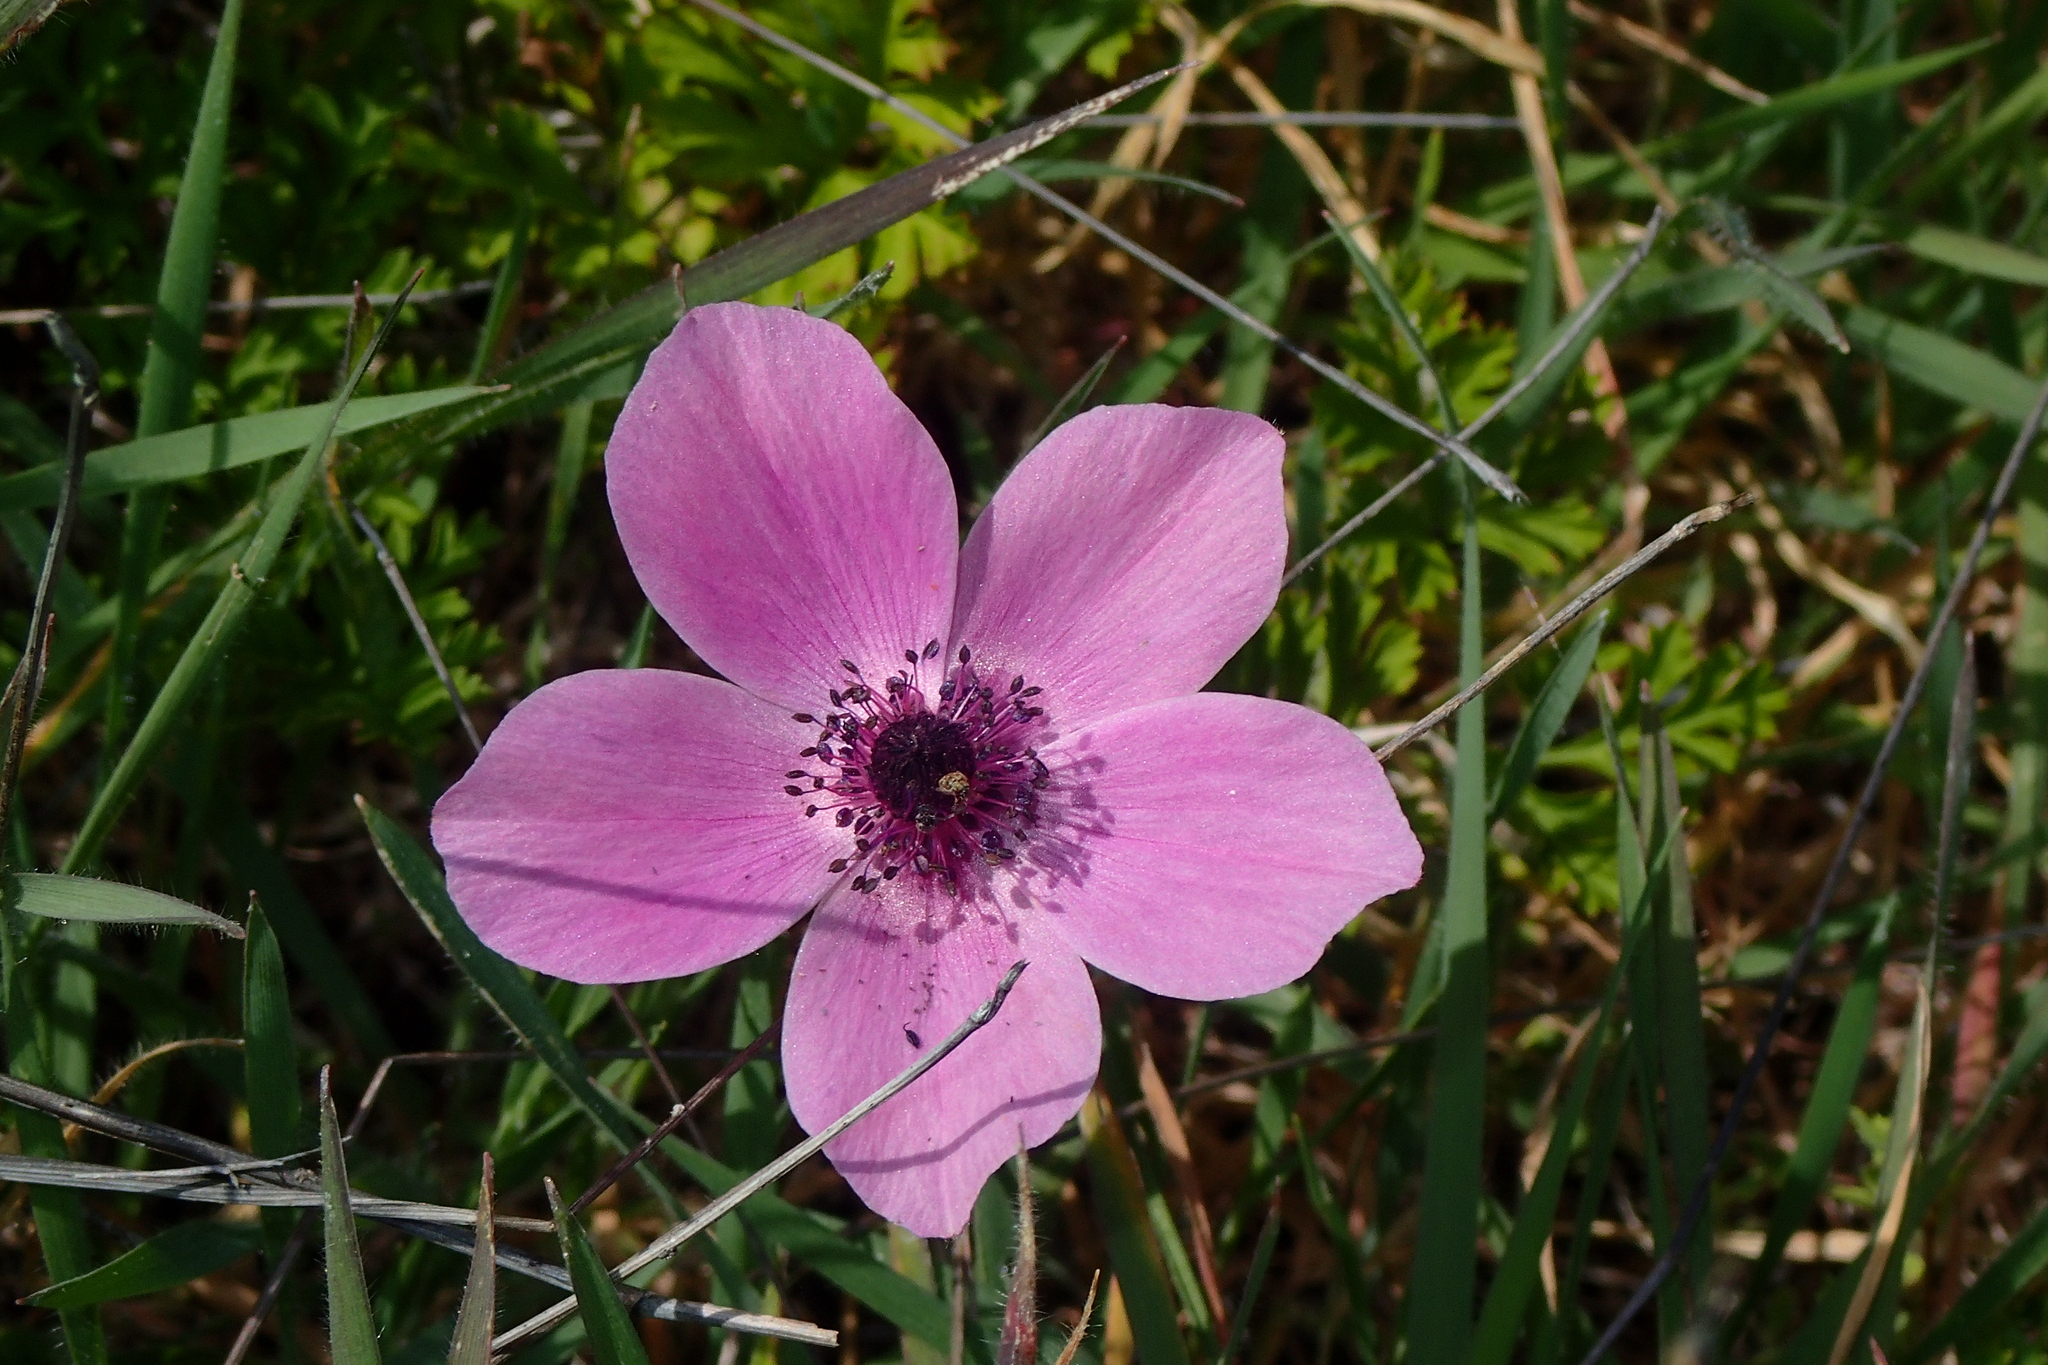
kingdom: Plantae
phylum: Tracheophyta
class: Magnoliopsida
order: Ranunculales
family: Ranunculaceae
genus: Anemone
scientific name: Anemone coronaria
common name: Poppy anemone
